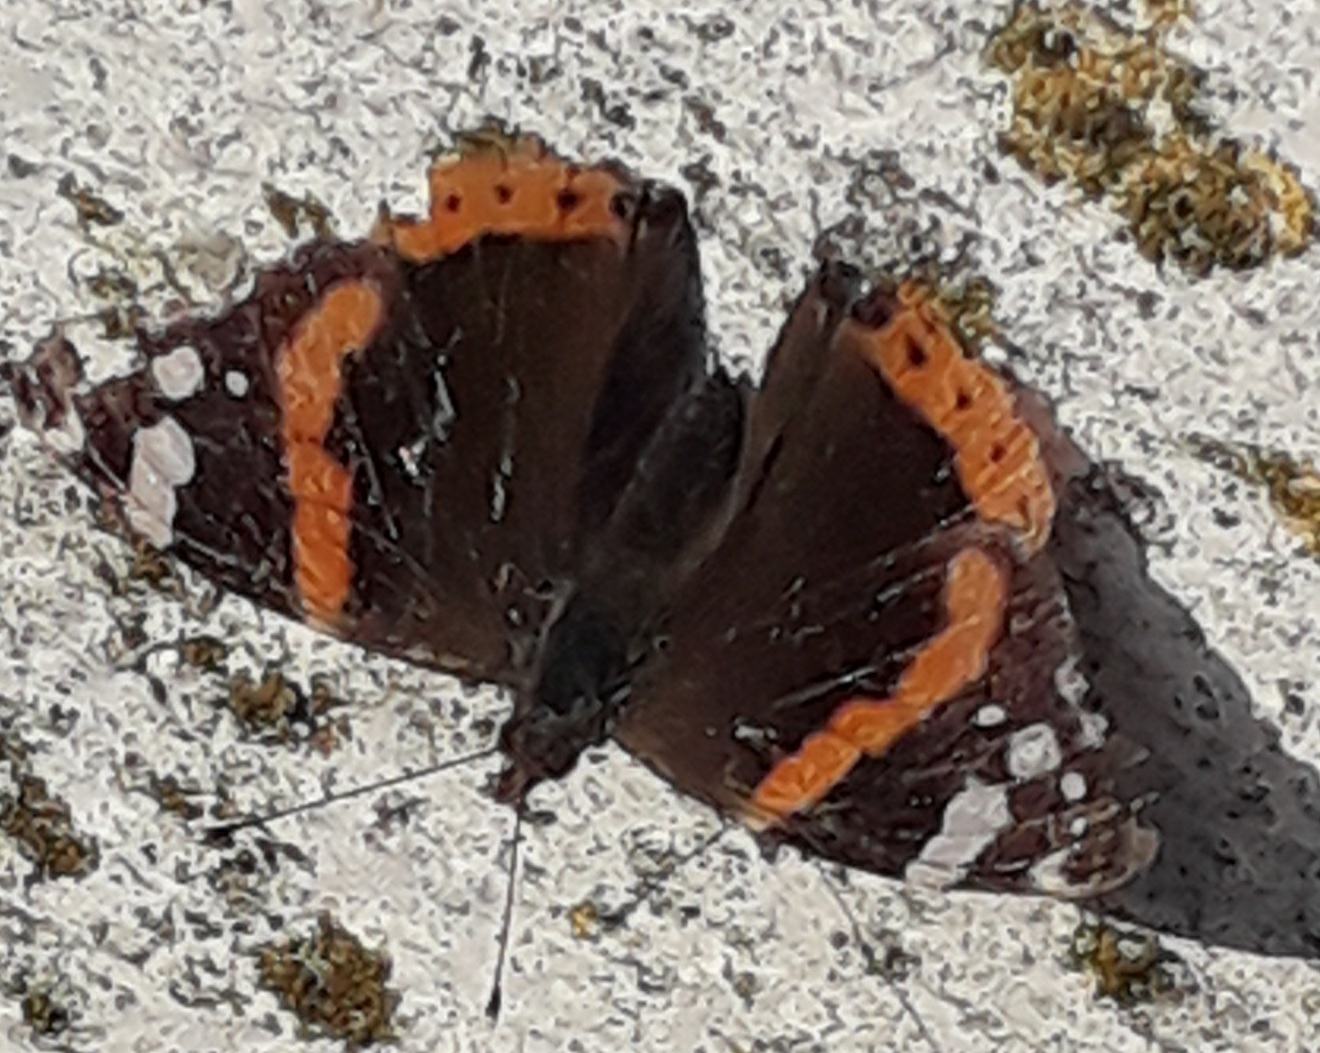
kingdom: Animalia
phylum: Arthropoda
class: Insecta
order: Lepidoptera
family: Nymphalidae
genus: Vanessa
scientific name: Vanessa atalanta
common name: Red admiral
